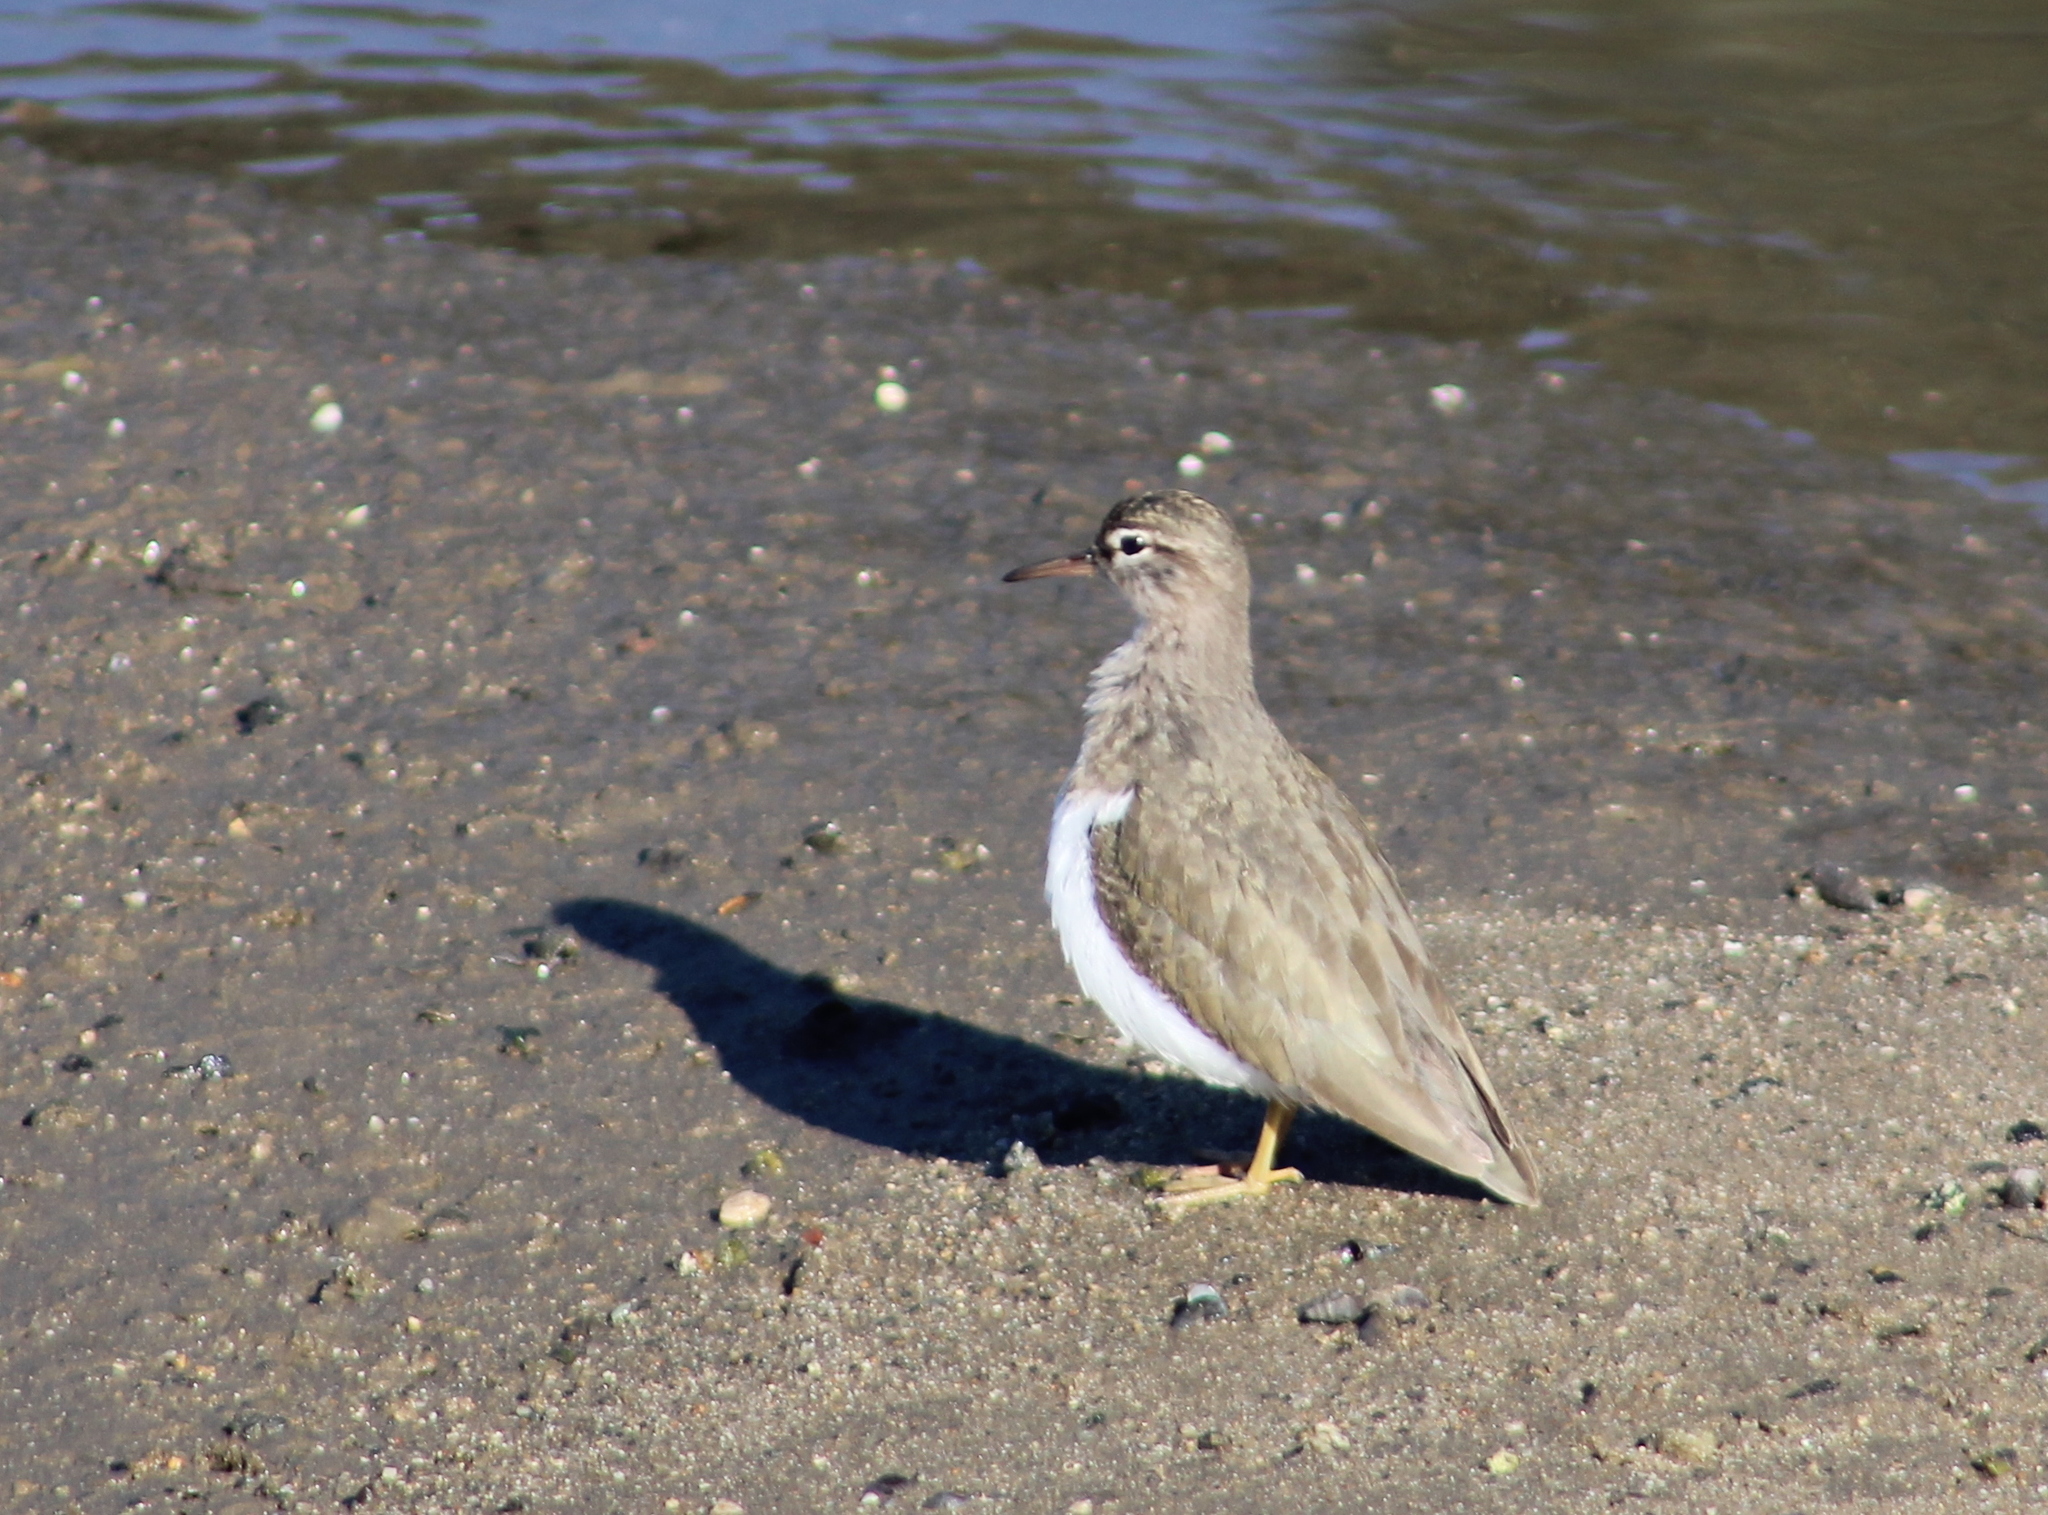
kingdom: Animalia
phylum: Chordata
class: Aves
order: Charadriiformes
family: Scolopacidae
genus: Actitis
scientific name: Actitis macularius
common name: Spotted sandpiper
